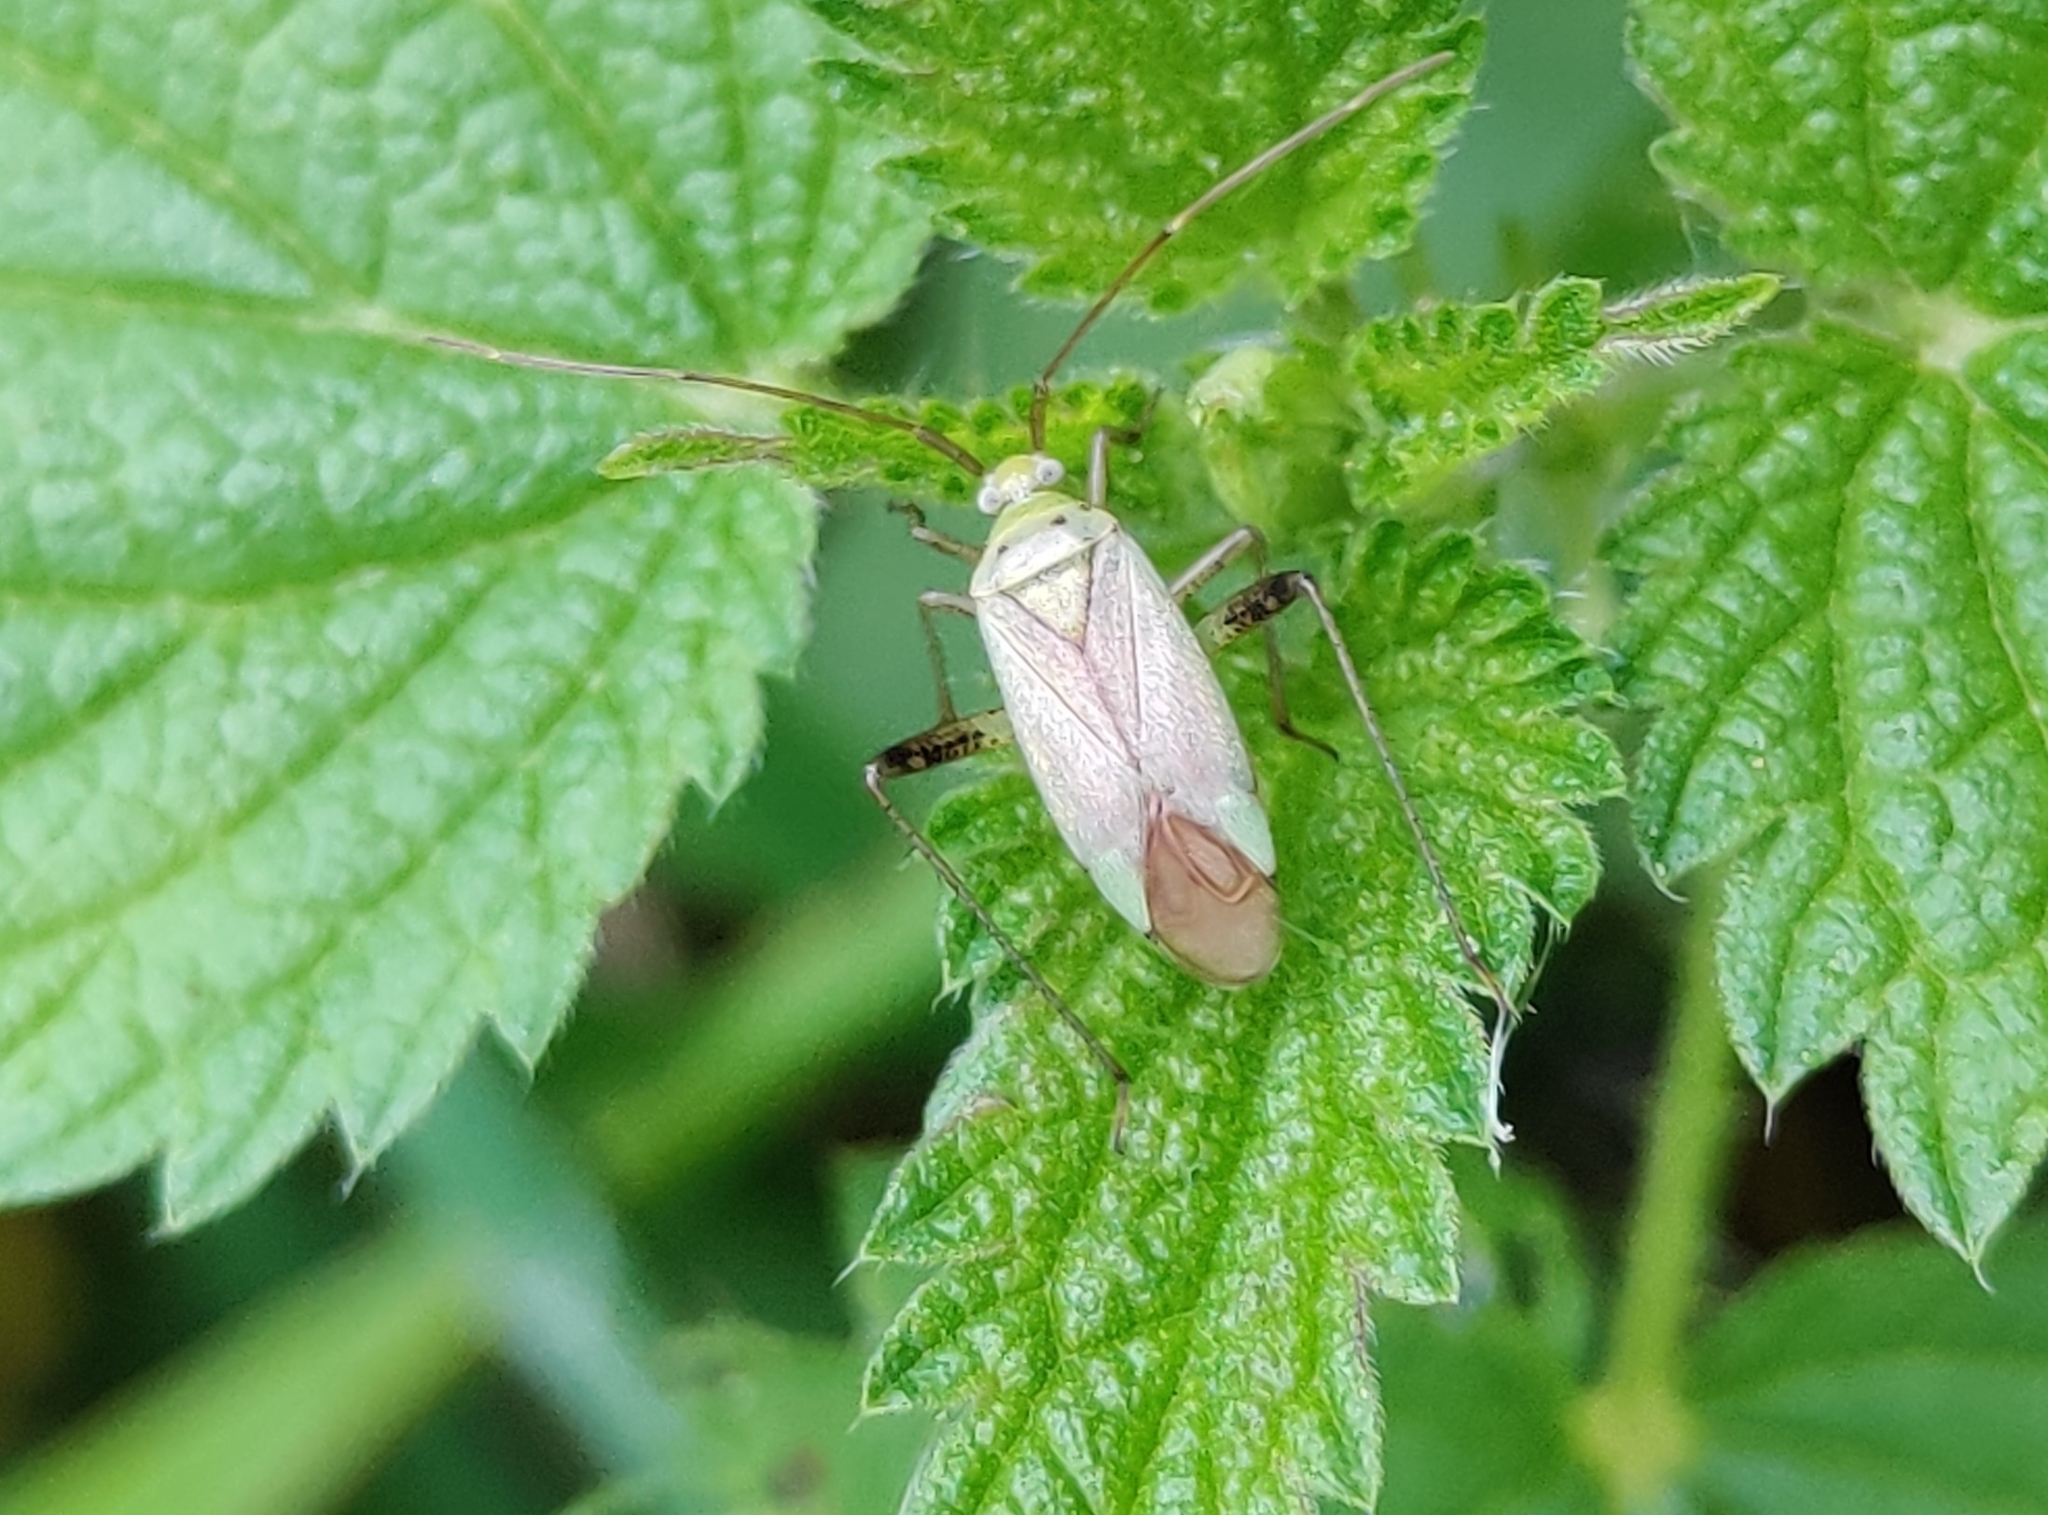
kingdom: Animalia
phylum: Arthropoda
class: Insecta
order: Hemiptera
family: Miridae
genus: Adelphocoris
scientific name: Adelphocoris lineolatus
